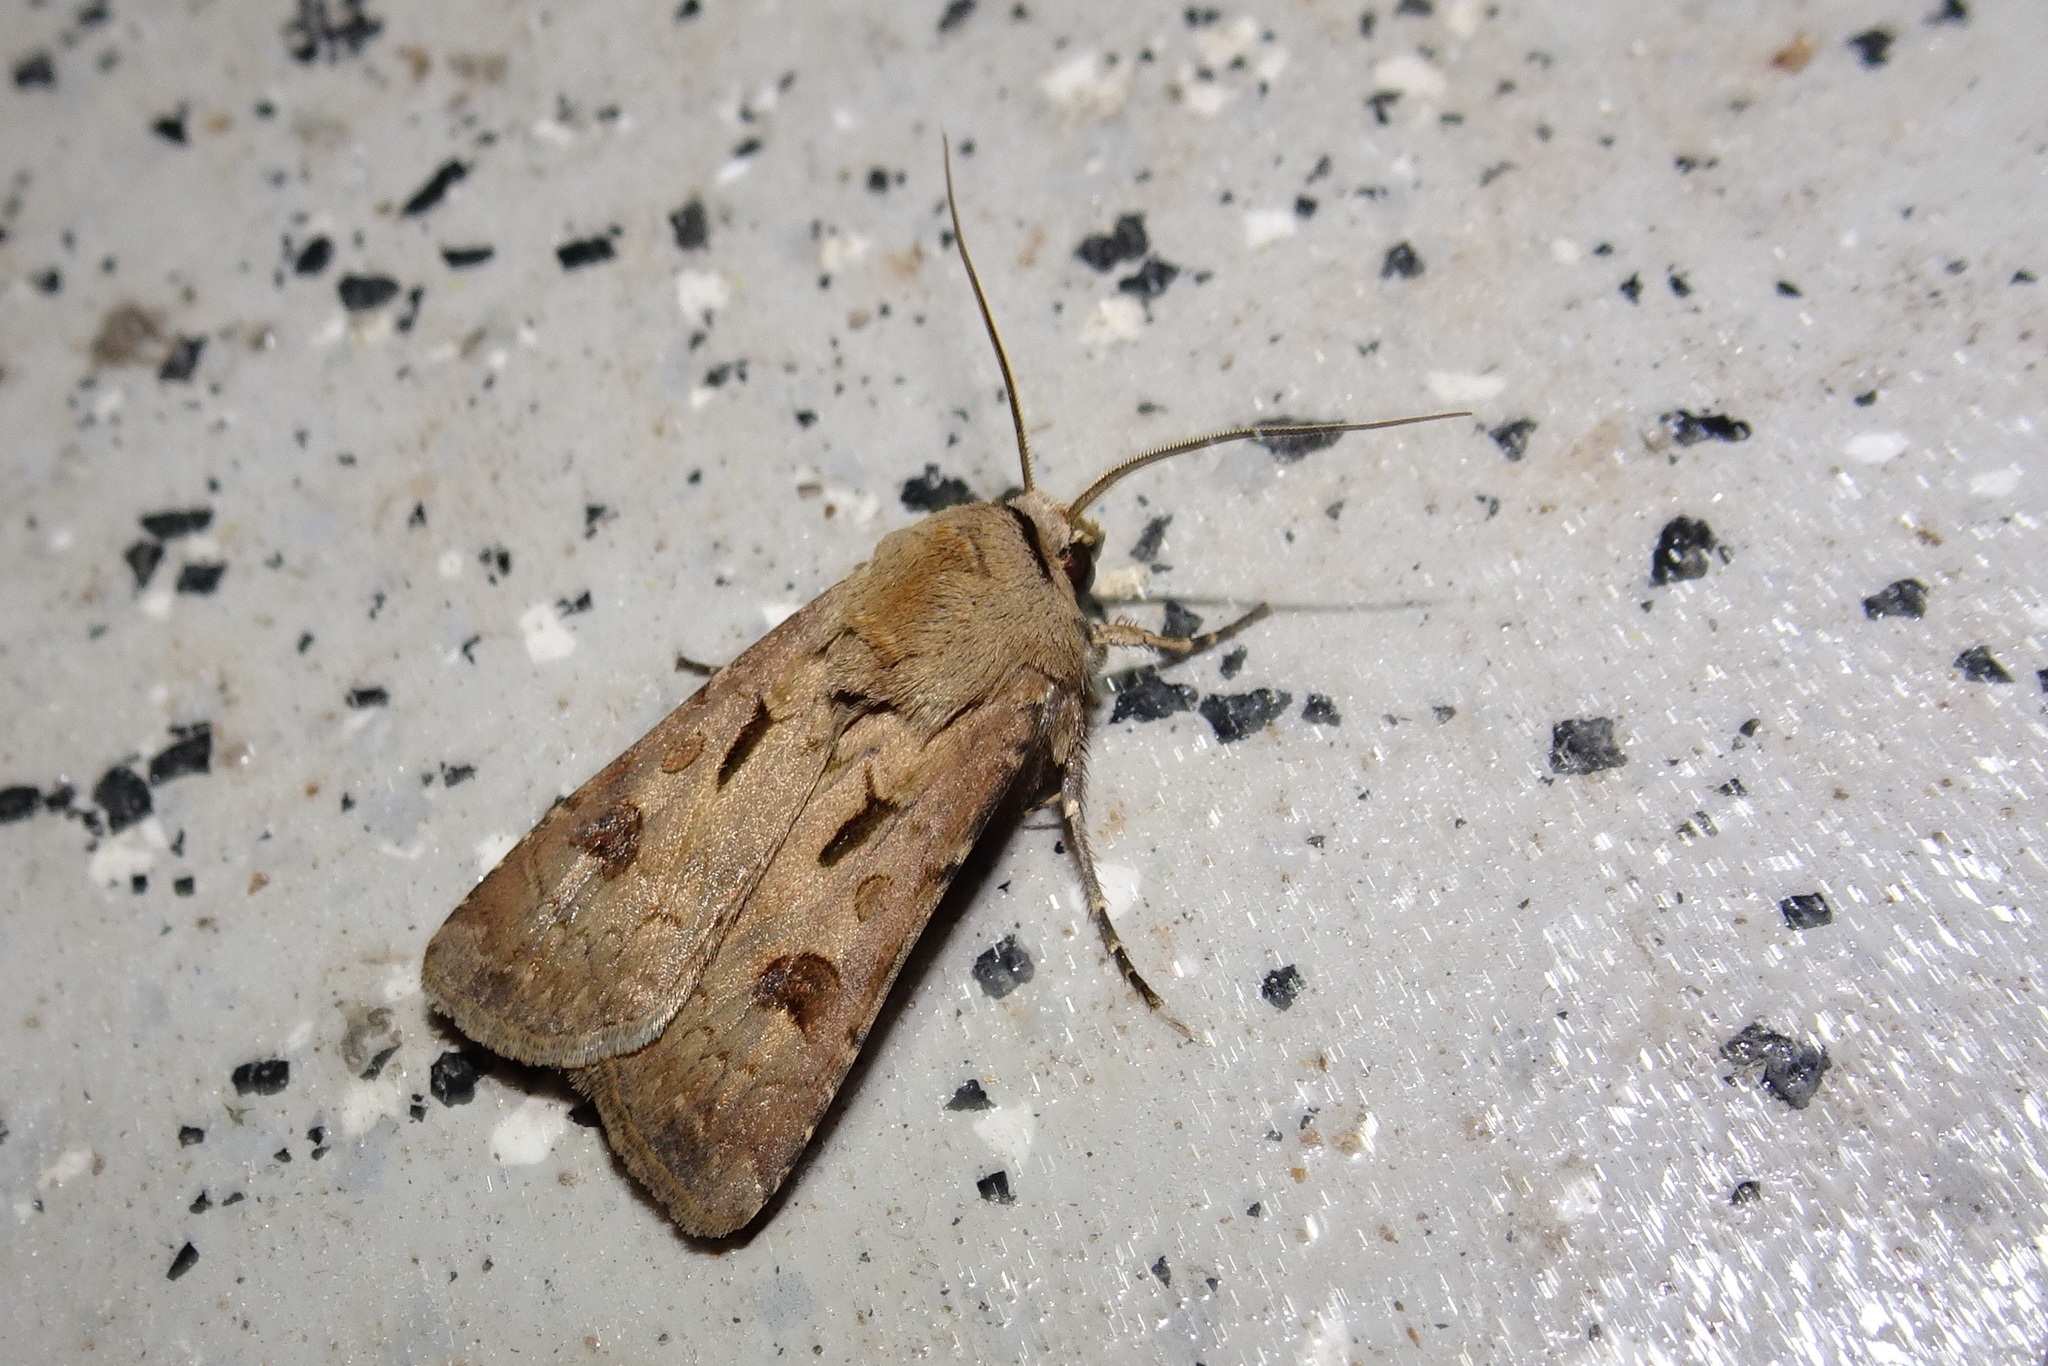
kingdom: Animalia
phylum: Arthropoda
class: Insecta
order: Lepidoptera
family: Noctuidae
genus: Agrotis
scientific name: Agrotis exclamationis
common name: Heart and dart
